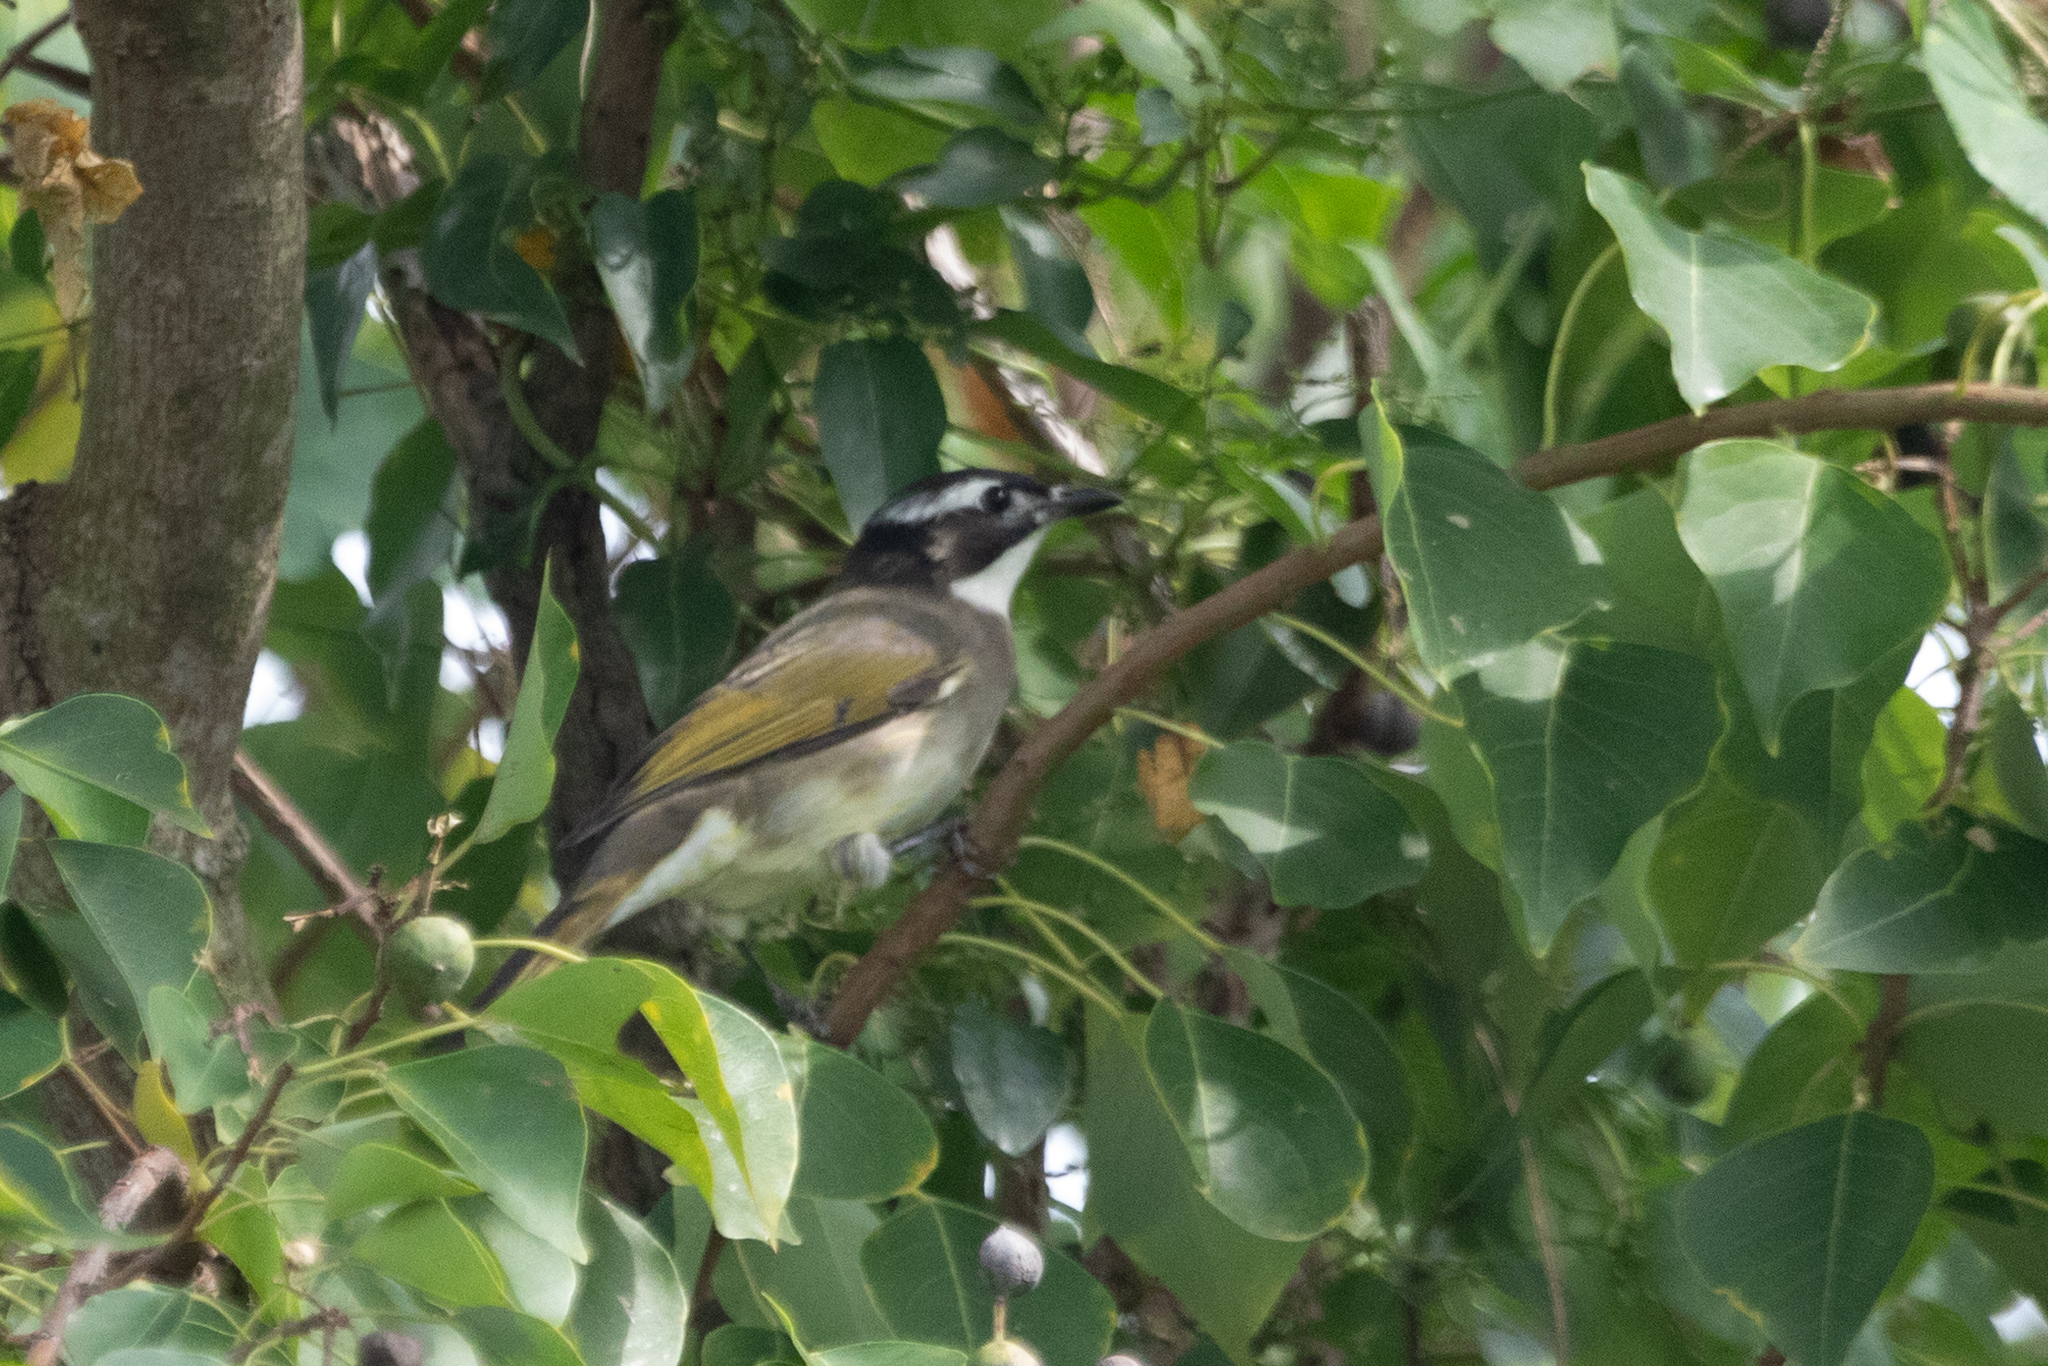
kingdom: Animalia
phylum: Chordata
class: Aves
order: Passeriformes
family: Pycnonotidae
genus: Pycnonotus
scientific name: Pycnonotus sinensis
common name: Light-vented bulbul
